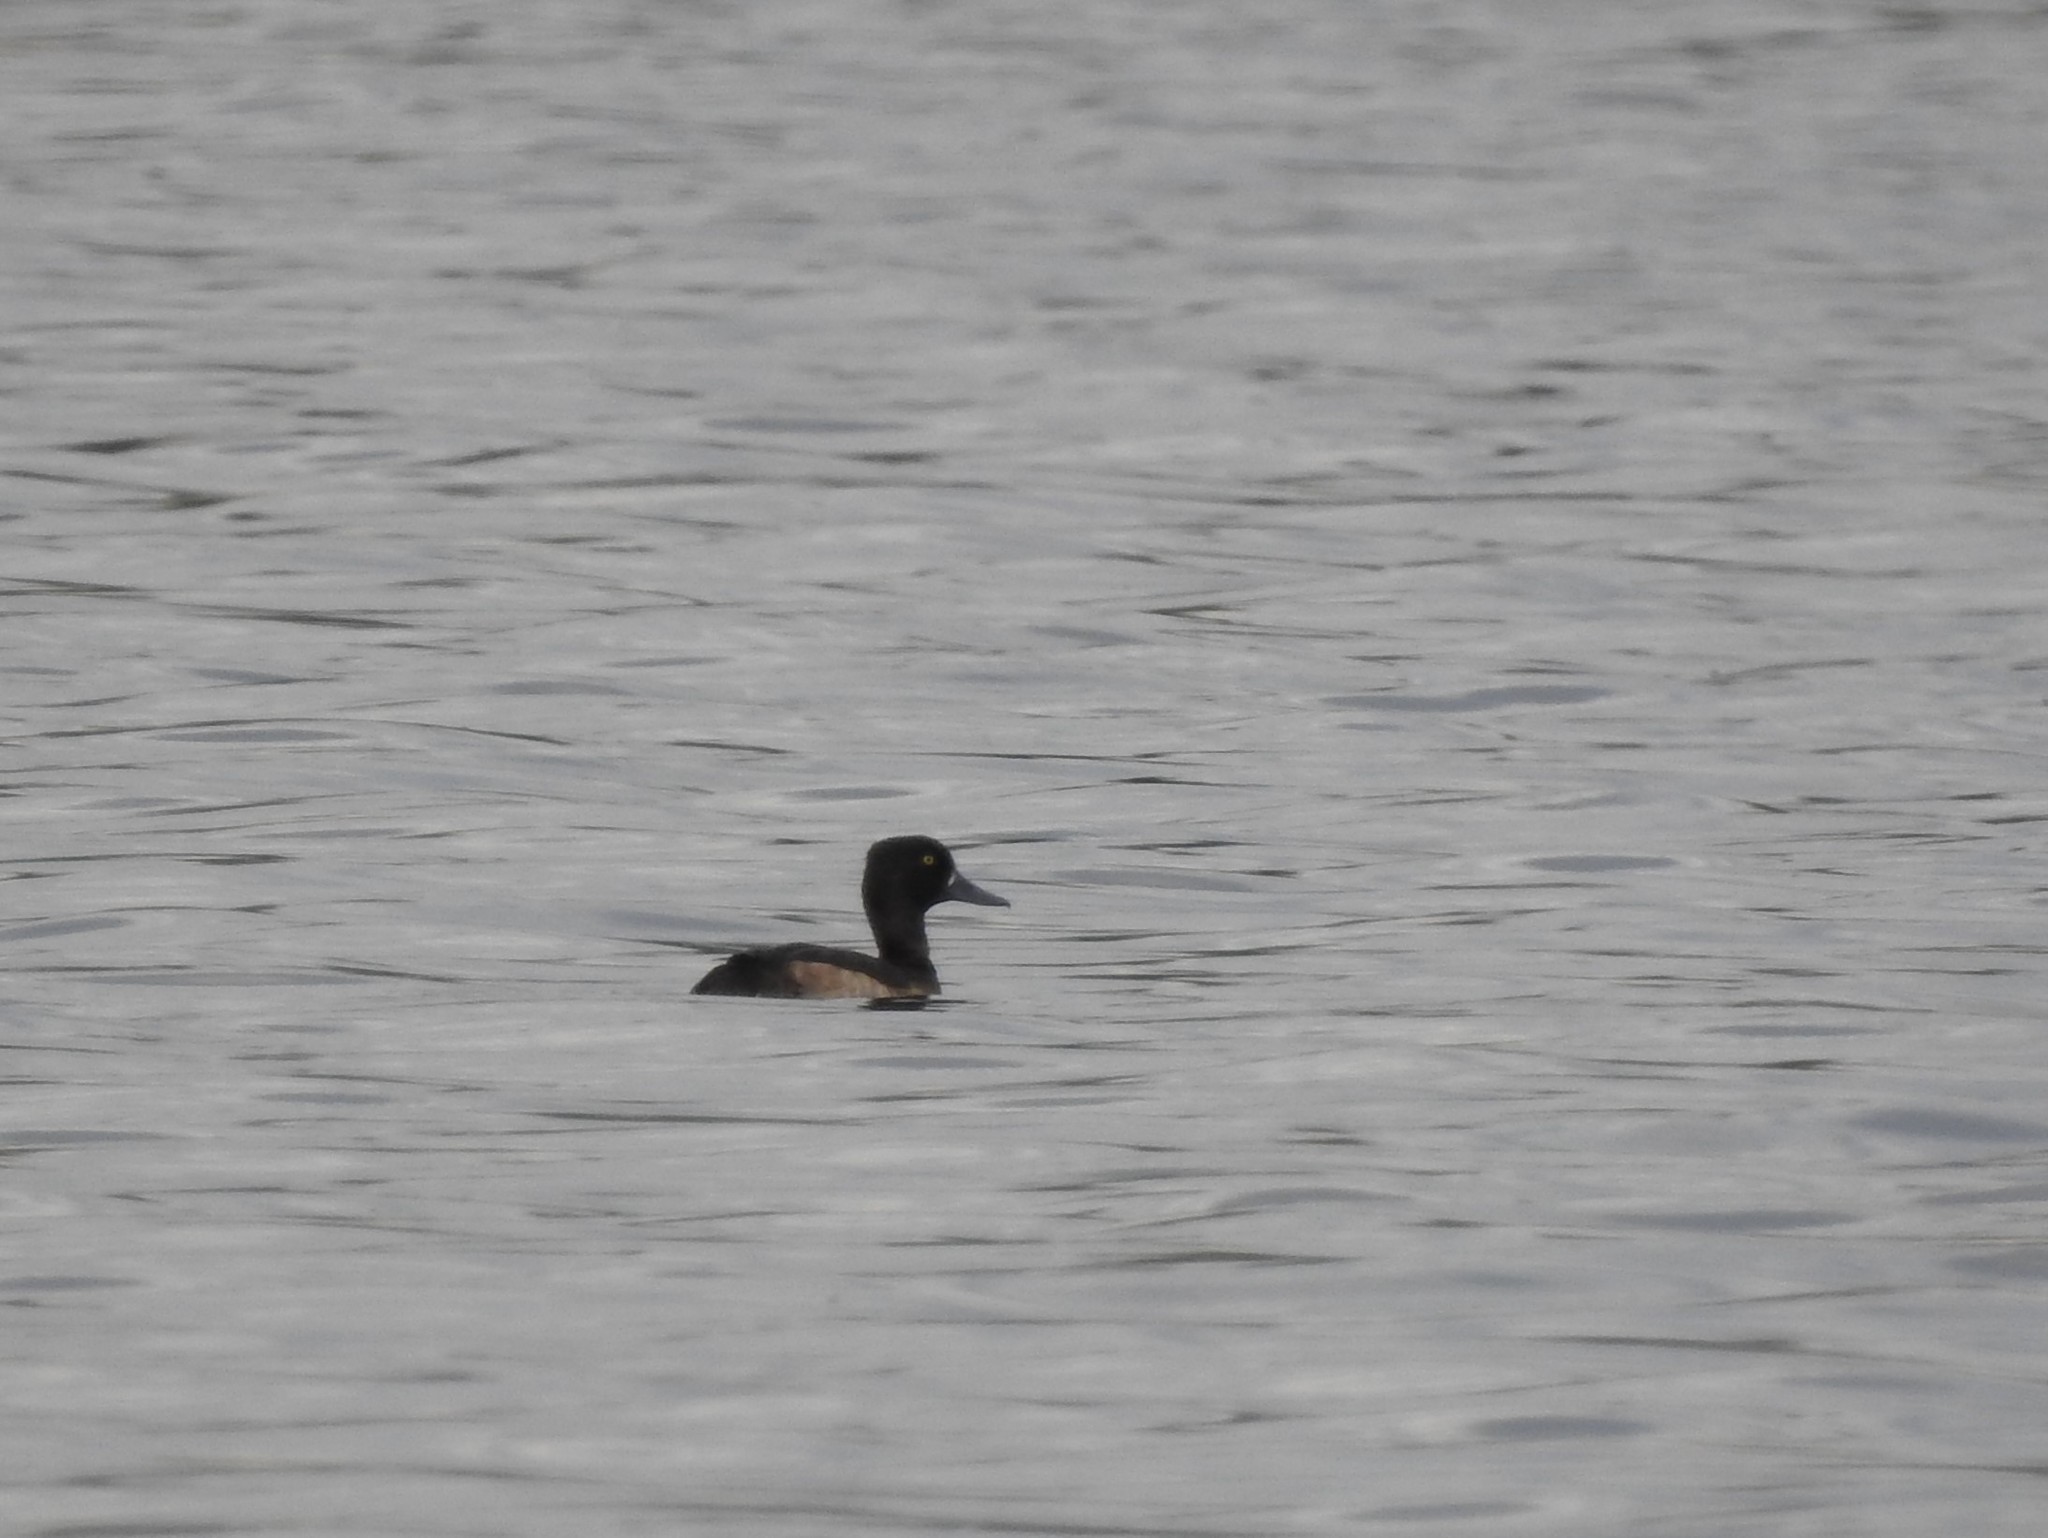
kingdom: Animalia
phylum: Chordata
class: Aves
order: Anseriformes
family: Anatidae
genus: Aythya
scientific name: Aythya fuligula
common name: Tufted duck
